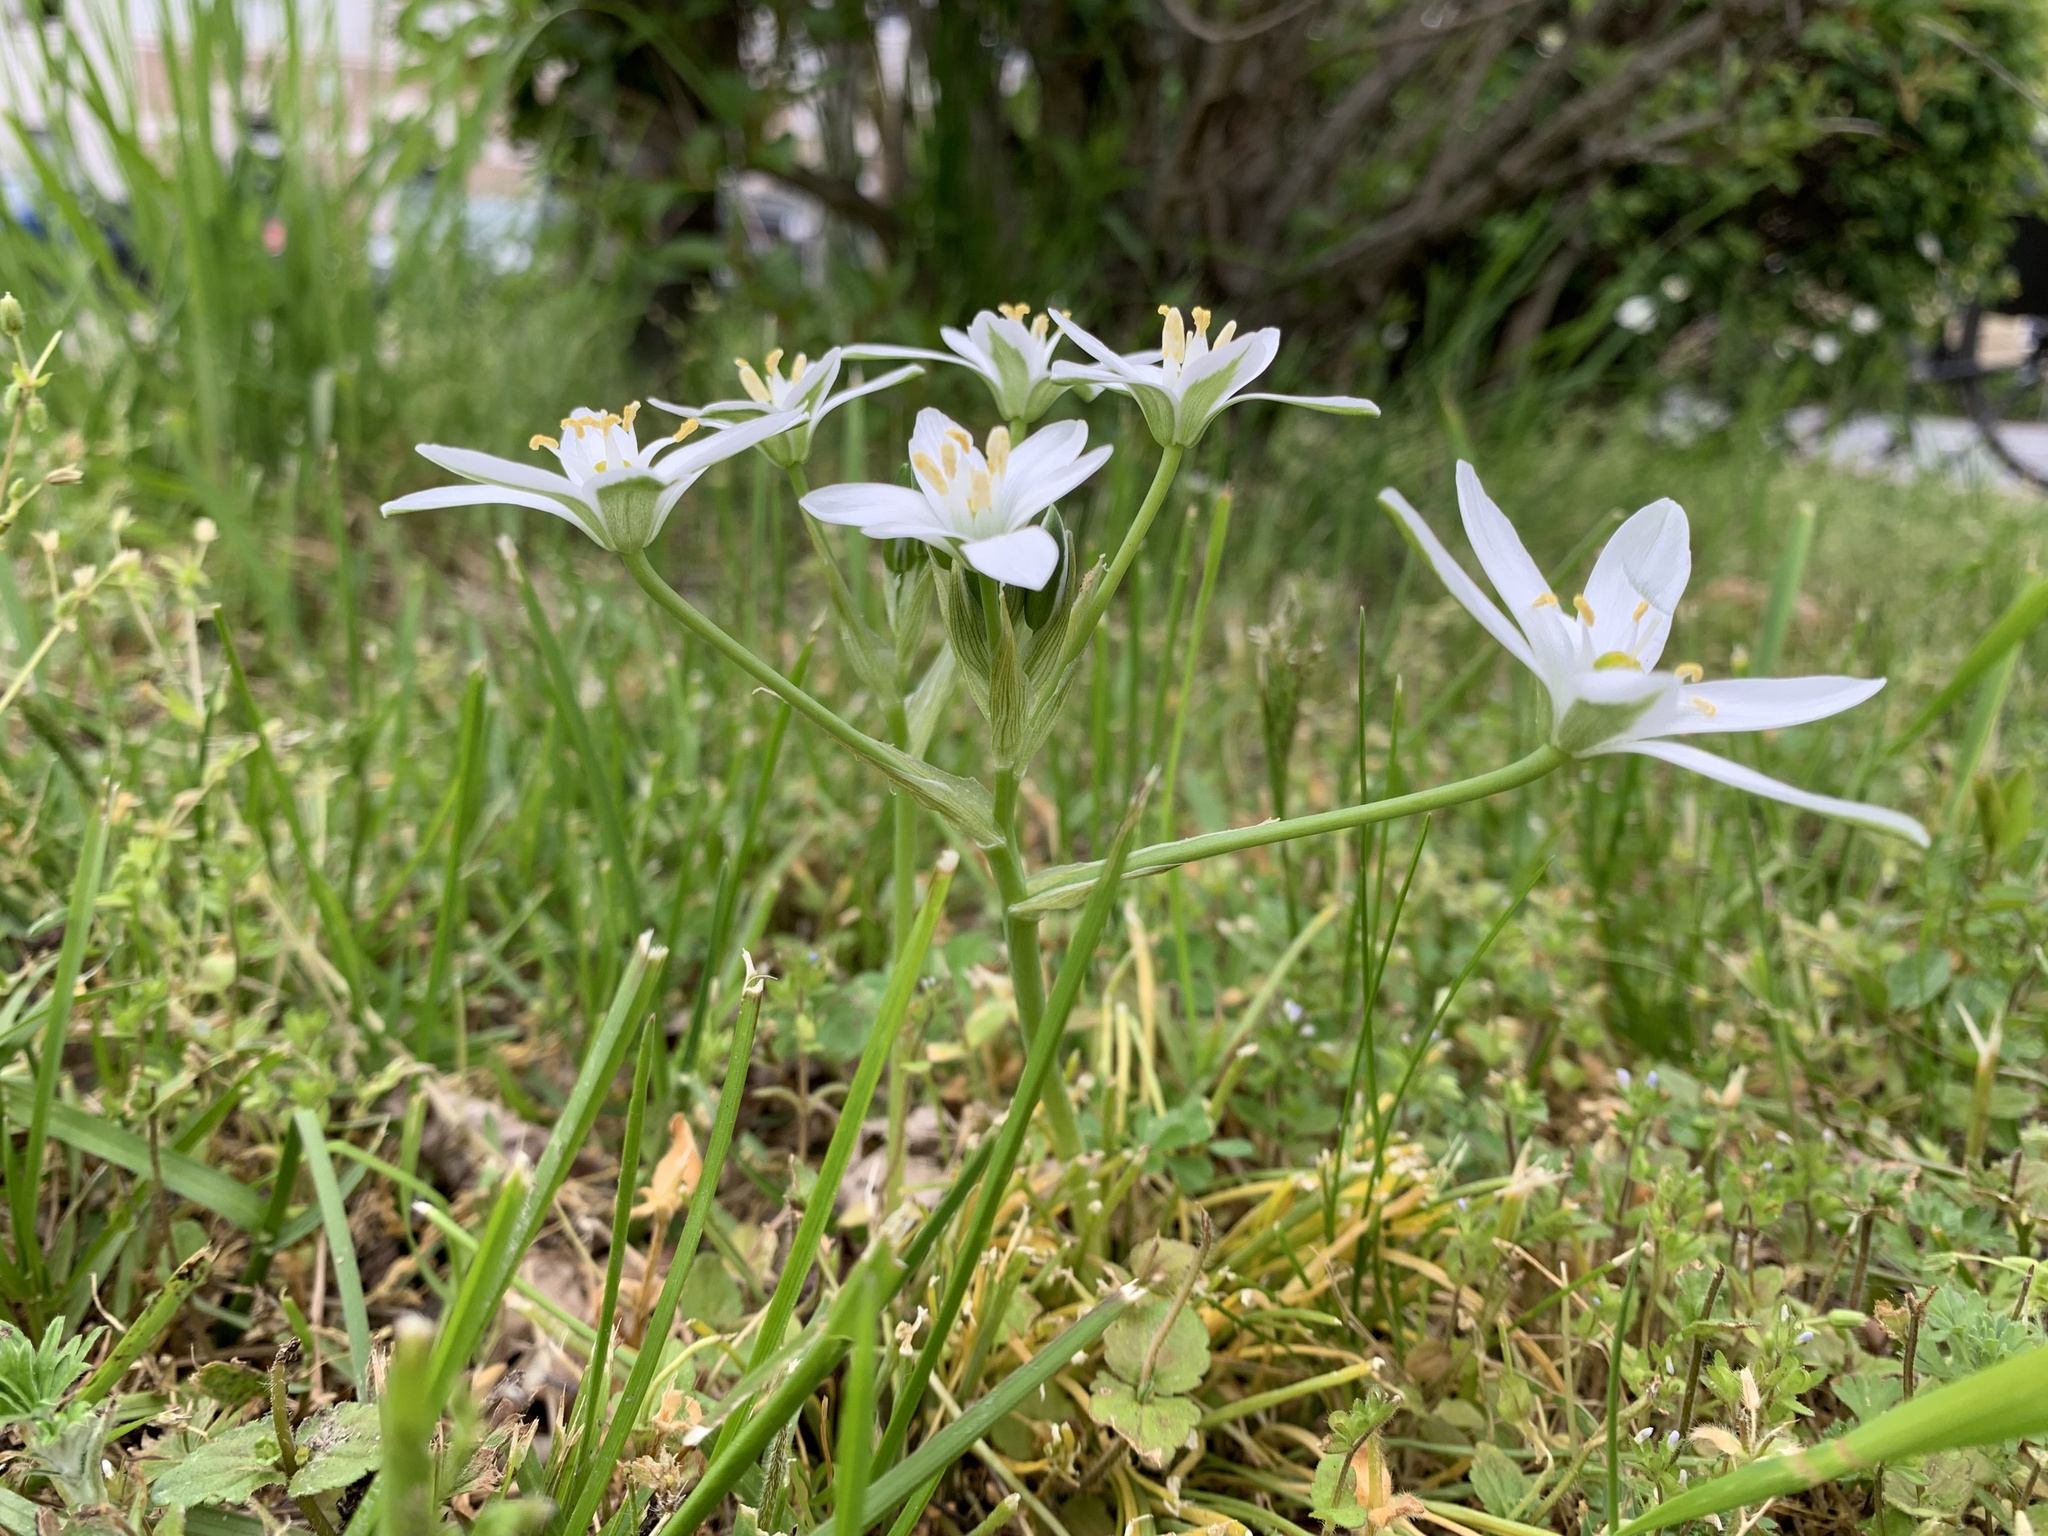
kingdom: Plantae
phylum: Tracheophyta
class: Liliopsida
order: Asparagales
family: Asparagaceae
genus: Ornithogalum
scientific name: Ornithogalum umbellatum
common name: Garden star-of-bethlehem
